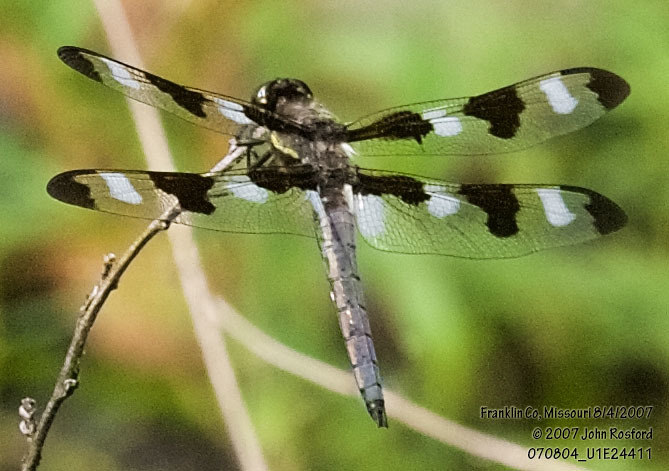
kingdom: Animalia
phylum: Arthropoda
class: Insecta
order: Odonata
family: Libellulidae
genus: Libellula
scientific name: Libellula pulchella
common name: Twelve-spotted skimmer
